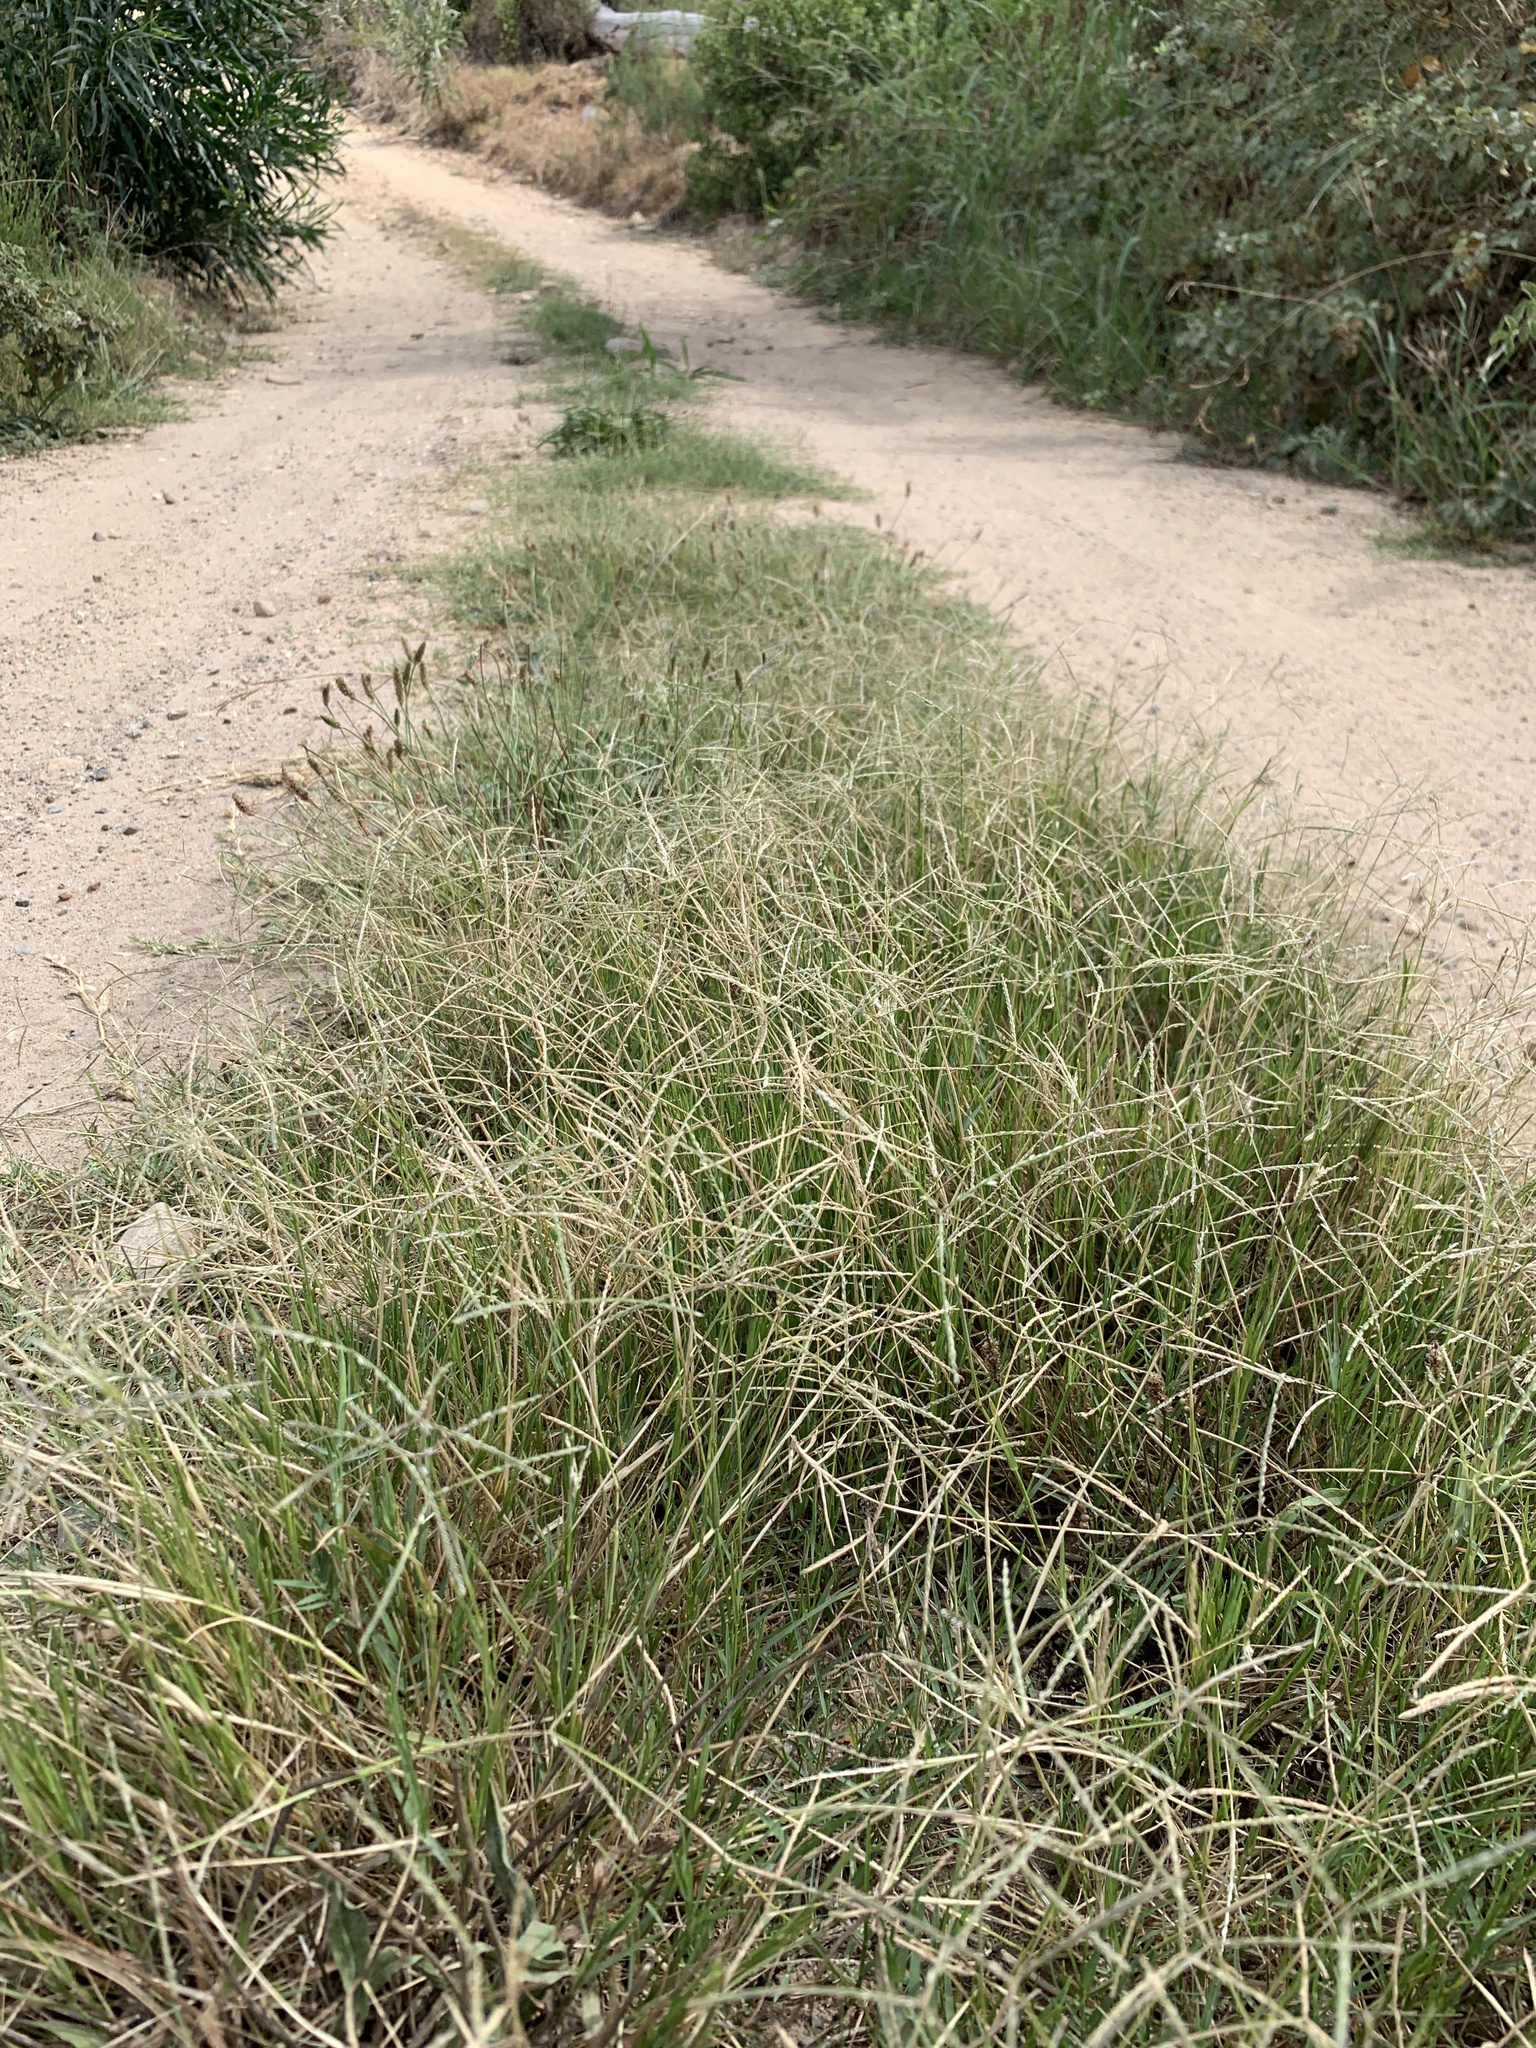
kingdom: Plantae
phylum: Tracheophyta
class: Liliopsida
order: Poales
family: Poaceae
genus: Cynodon
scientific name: Cynodon dactylon
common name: Bermuda grass
